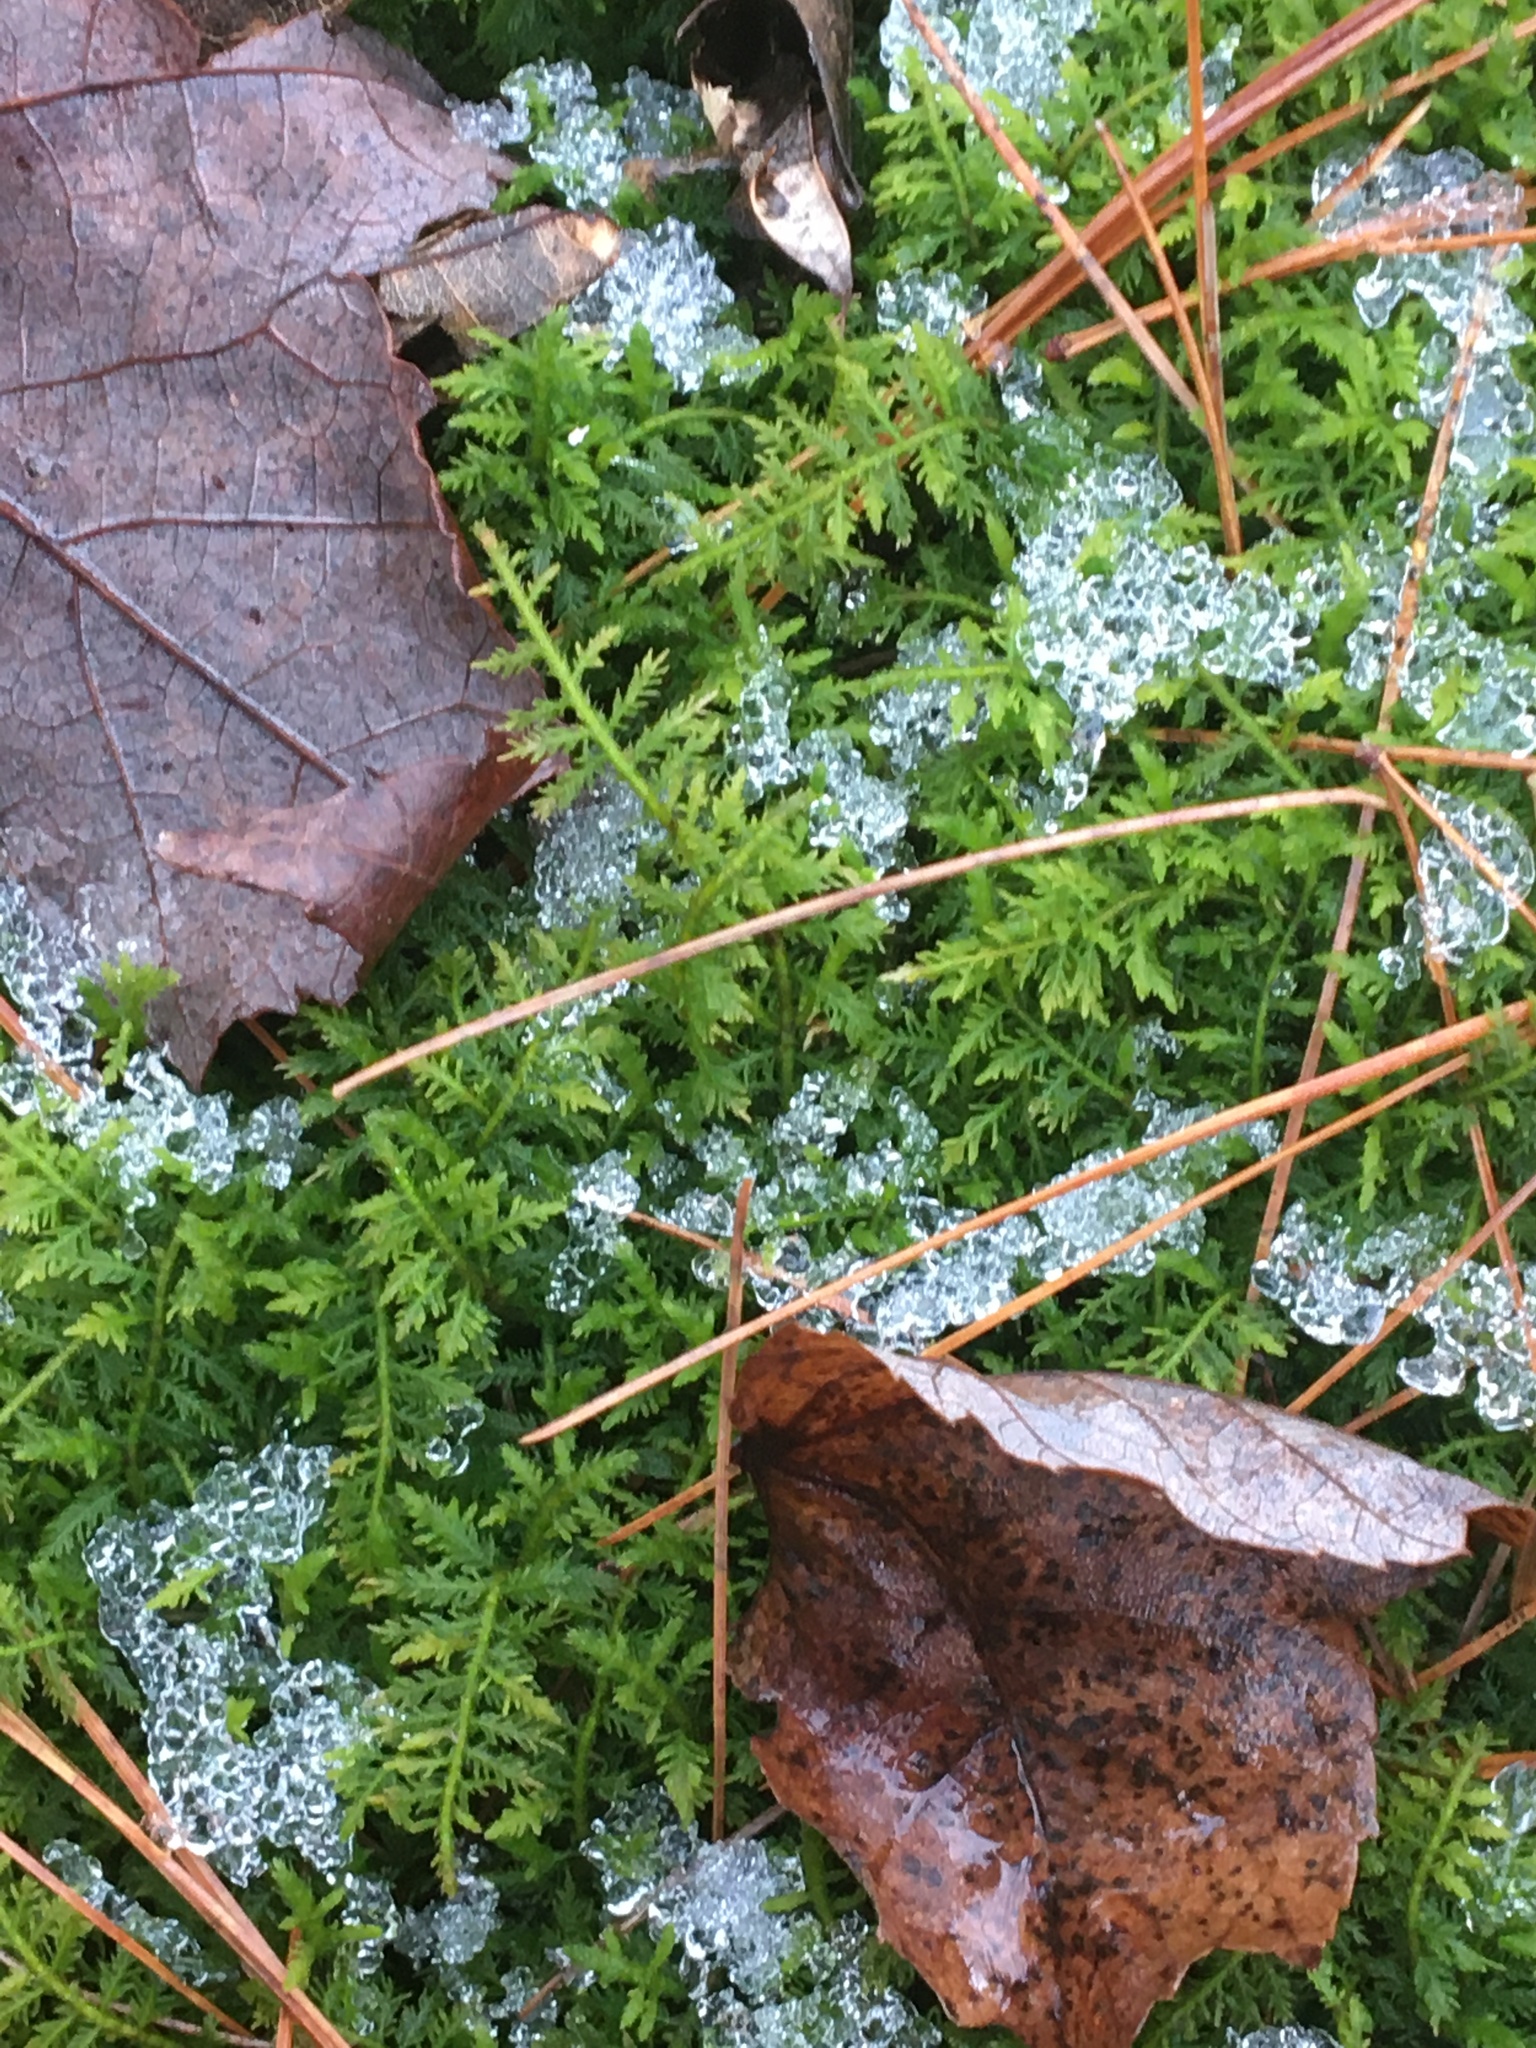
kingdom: Plantae
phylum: Bryophyta
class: Bryopsida
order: Hypnales
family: Thuidiaceae
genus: Thuidium
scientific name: Thuidium delicatulum
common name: Delicate fern moss
